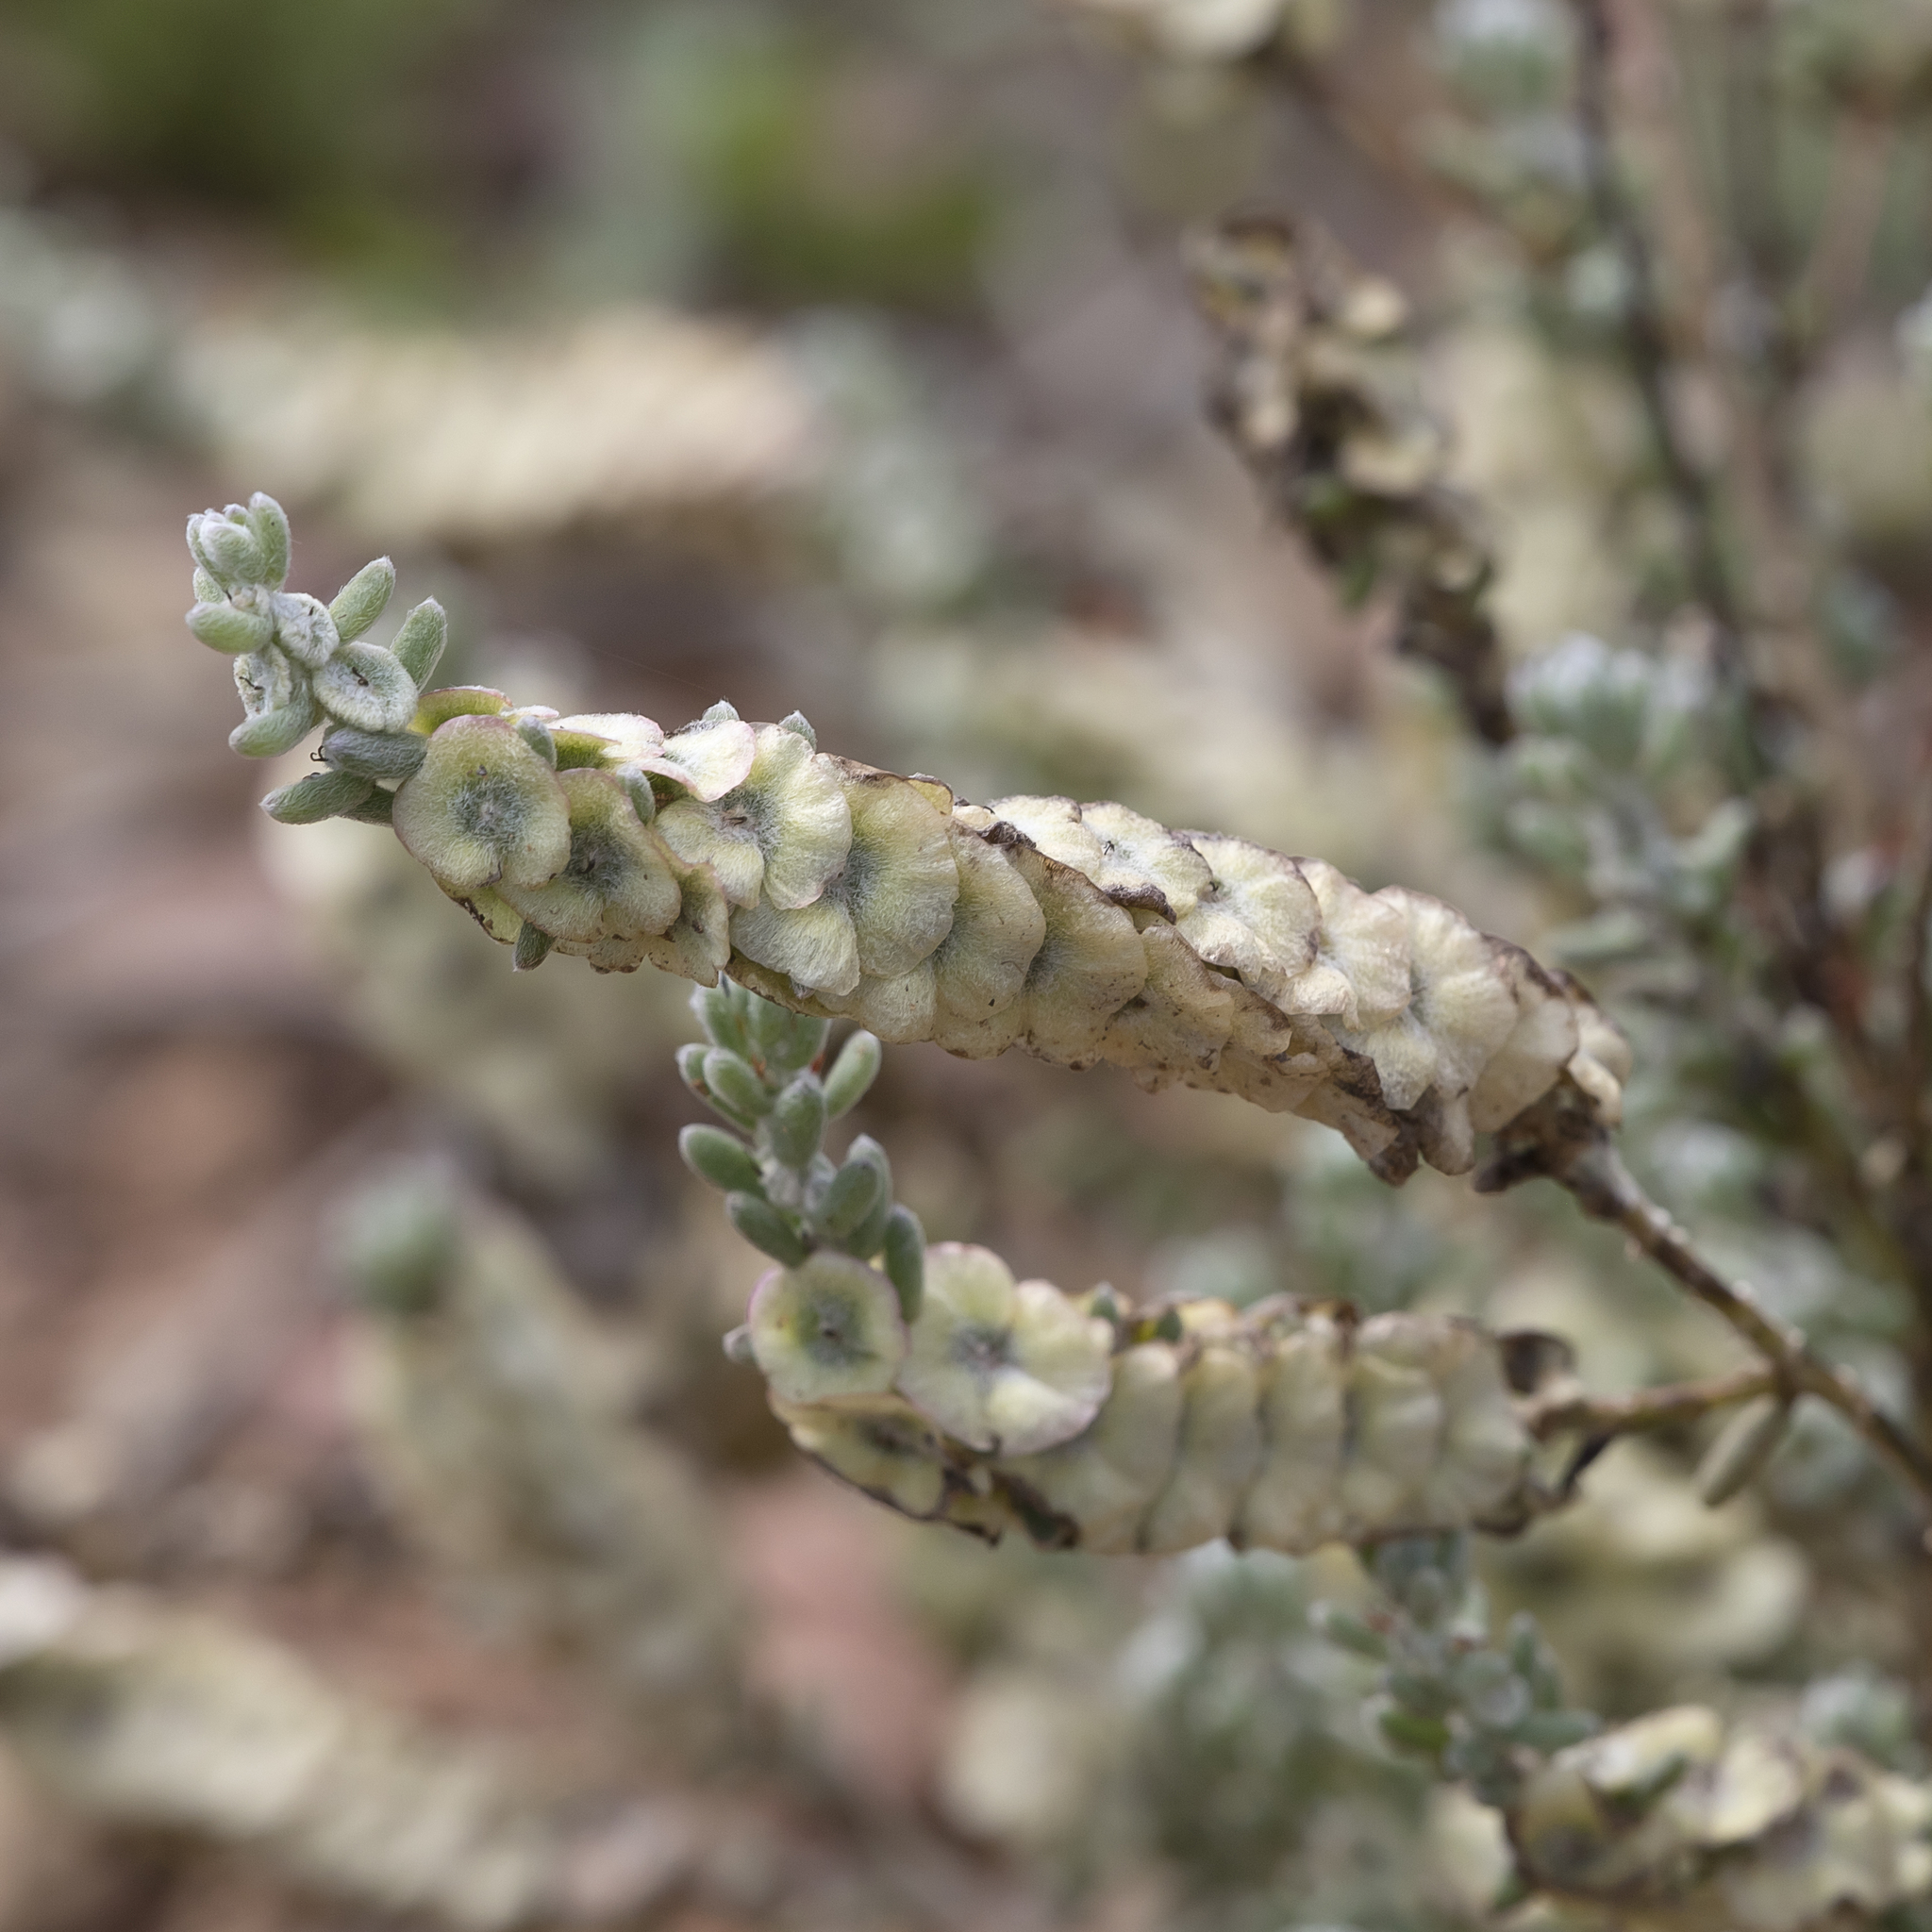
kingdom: Plantae
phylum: Tracheophyta
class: Magnoliopsida
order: Caryophyllales
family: Amaranthaceae
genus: Maireana
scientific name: Maireana trichoptera
